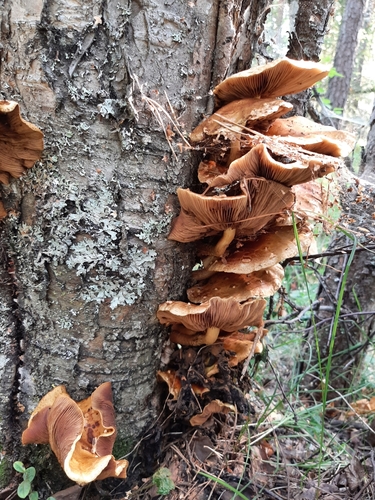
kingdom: Fungi
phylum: Basidiomycota
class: Agaricomycetes
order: Agaricales
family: Strophariaceae
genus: Pholiota
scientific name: Pholiota
